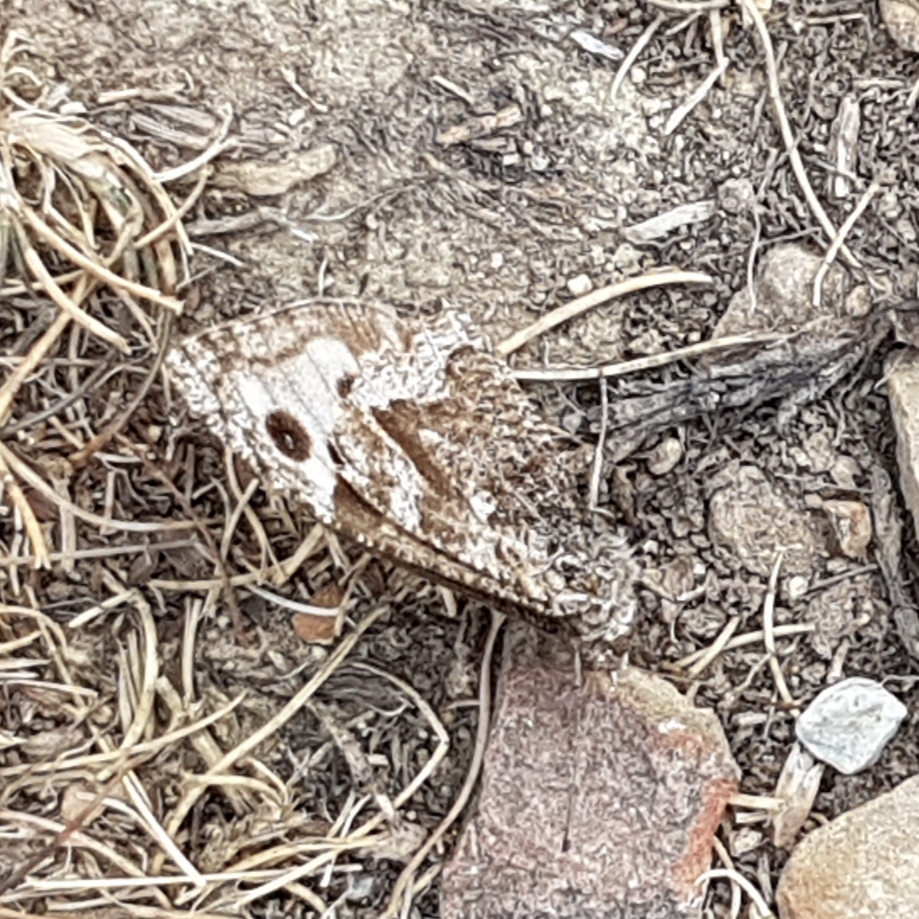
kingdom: Animalia
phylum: Arthropoda
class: Insecta
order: Lepidoptera
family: Nymphalidae
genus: Hipparchia
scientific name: Hipparchia semele
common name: Grayling
